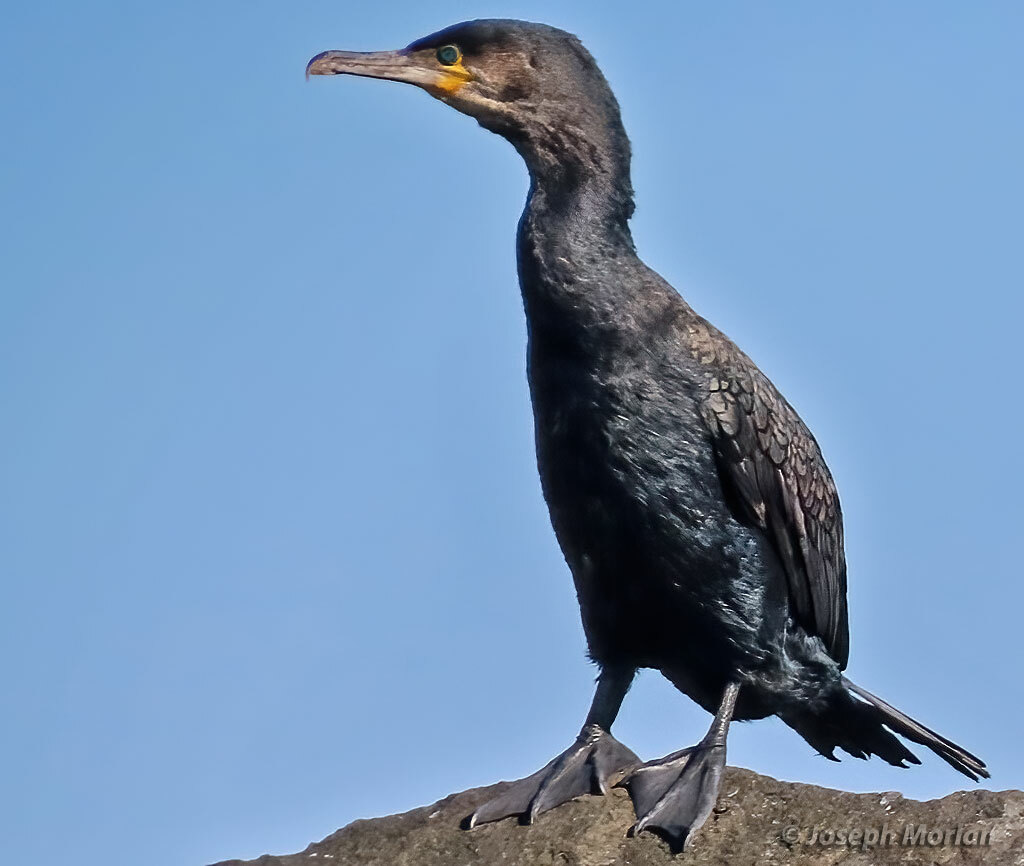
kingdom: Animalia
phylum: Chordata
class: Aves
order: Suliformes
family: Phalacrocoracidae
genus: Phalacrocorax
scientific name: Phalacrocorax carbo
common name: Great cormorant
